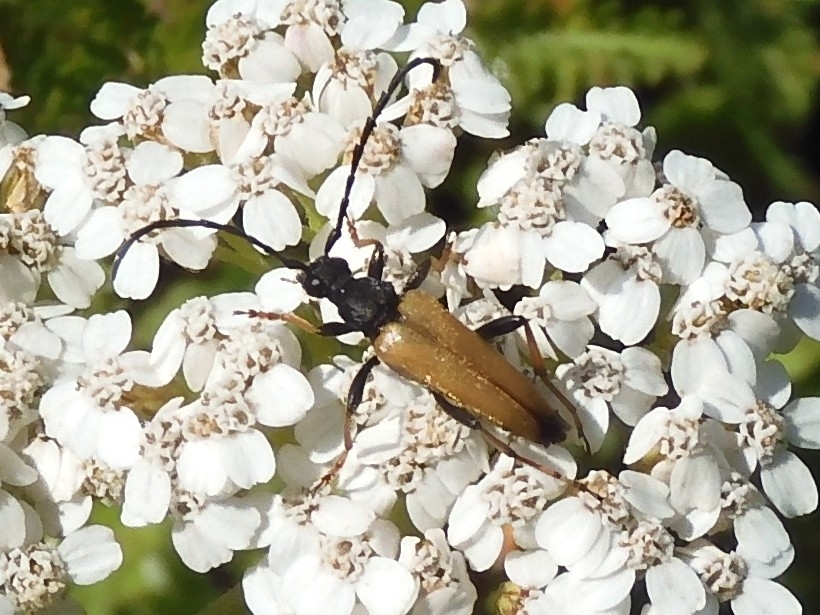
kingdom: Animalia
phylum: Arthropoda
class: Insecta
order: Coleoptera
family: Cerambycidae
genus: Stictoleptura
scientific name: Stictoleptura rubra
